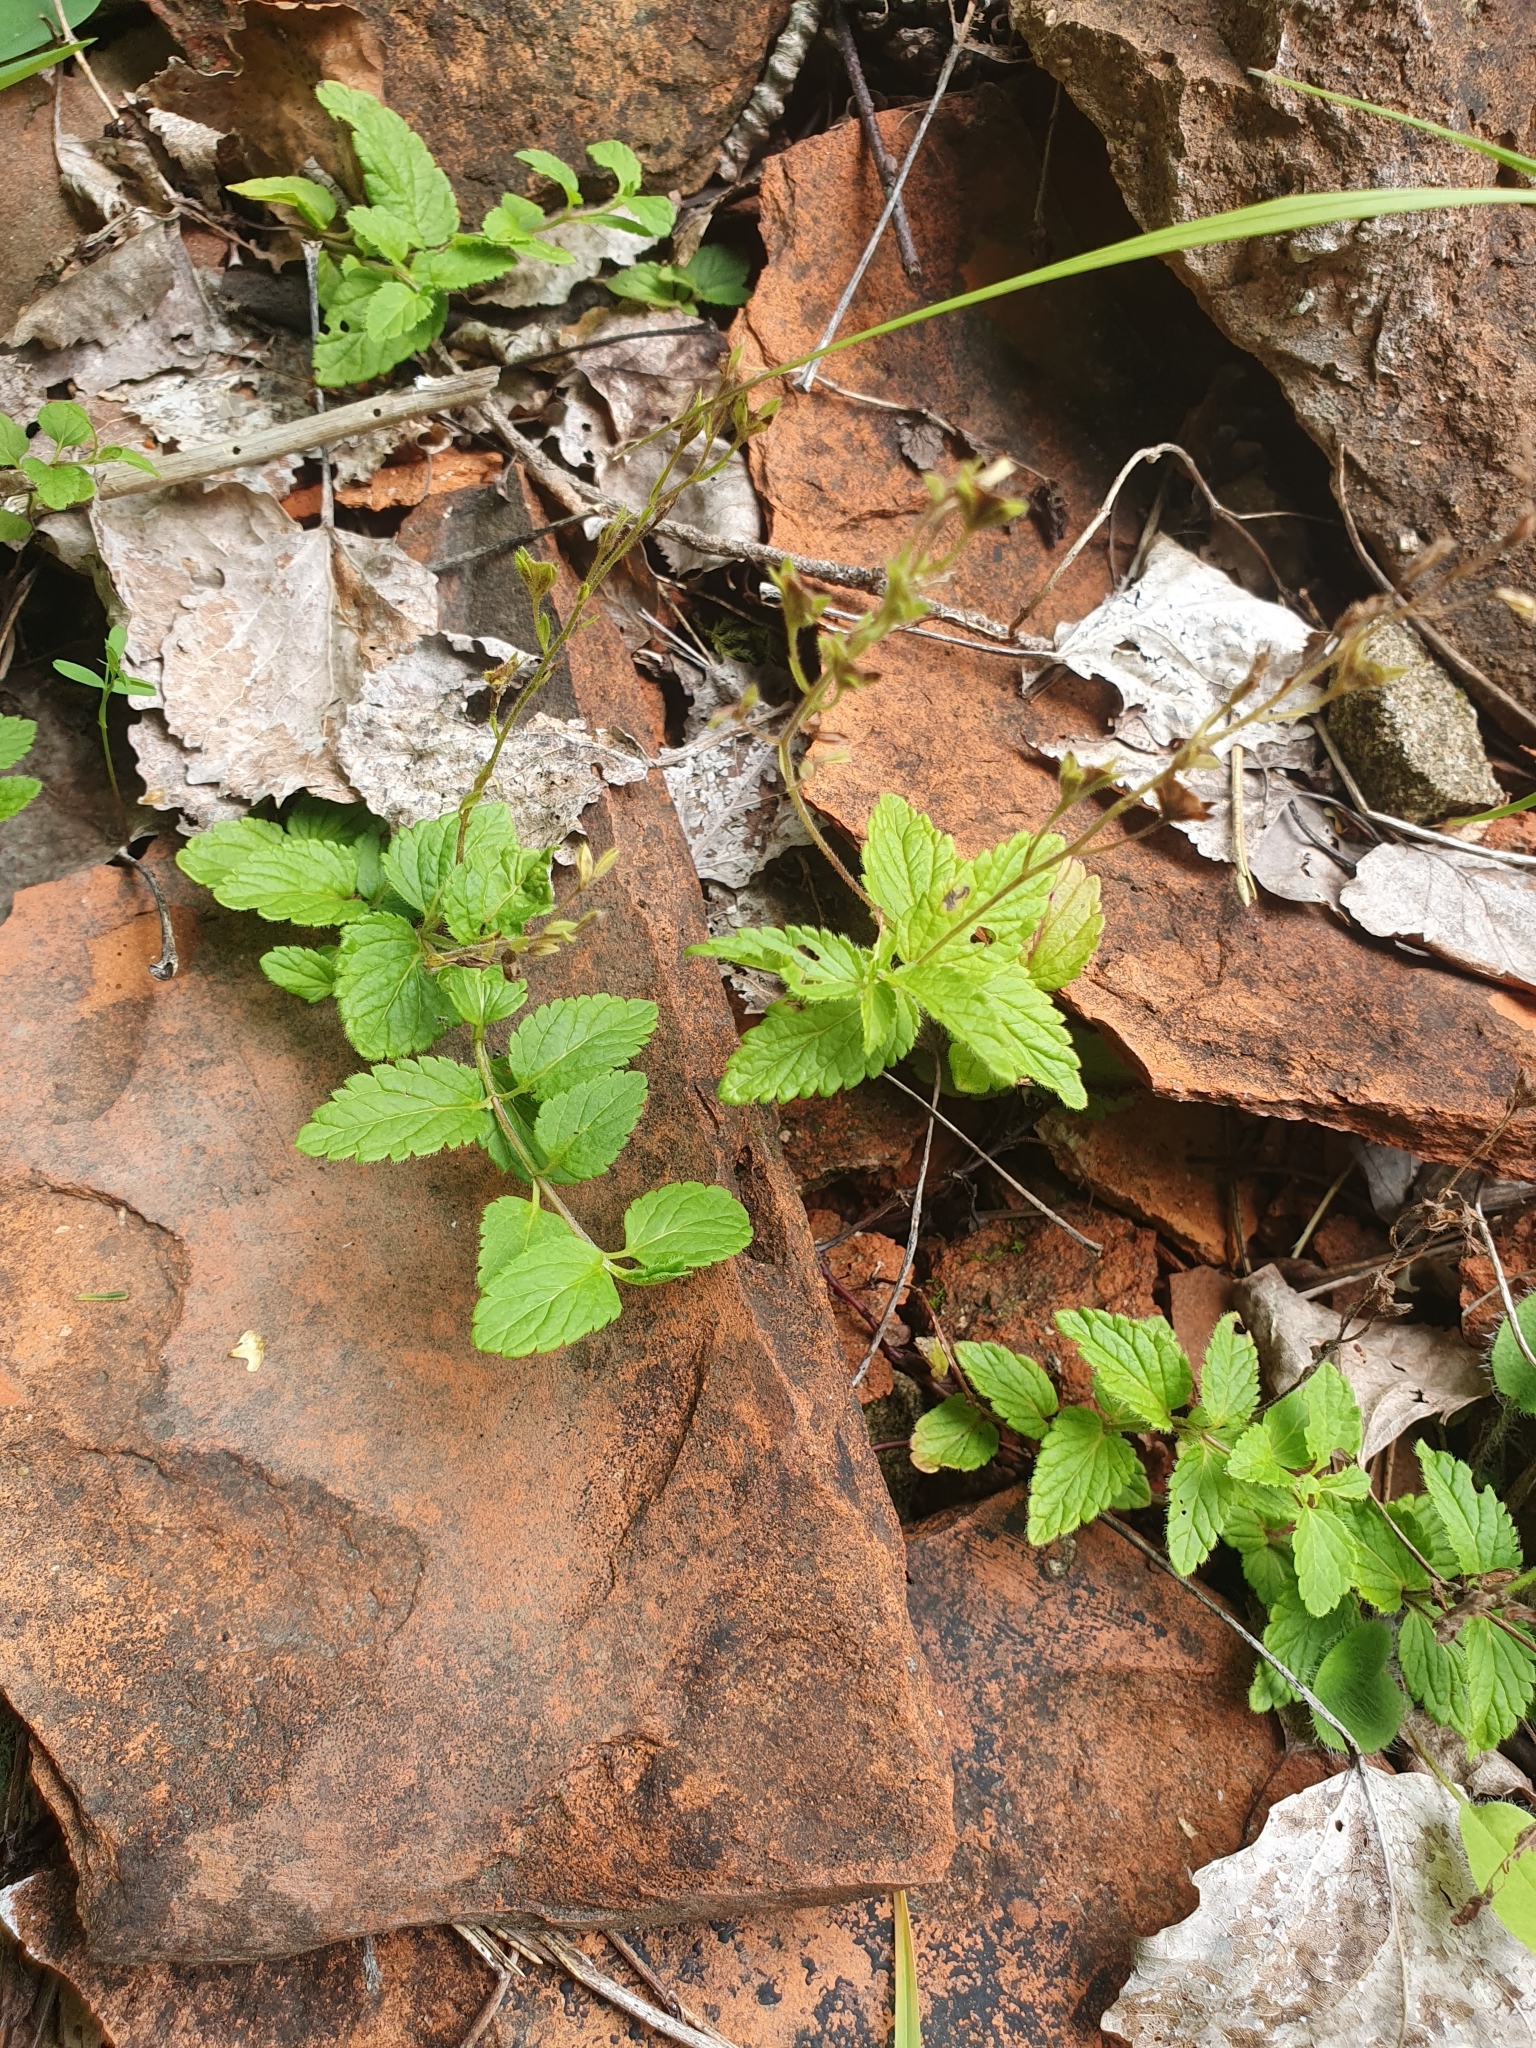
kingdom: Plantae
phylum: Tracheophyta
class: Magnoliopsida
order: Lamiales
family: Plantaginaceae
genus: Veronica
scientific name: Veronica chamaedrys
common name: Germander speedwell
